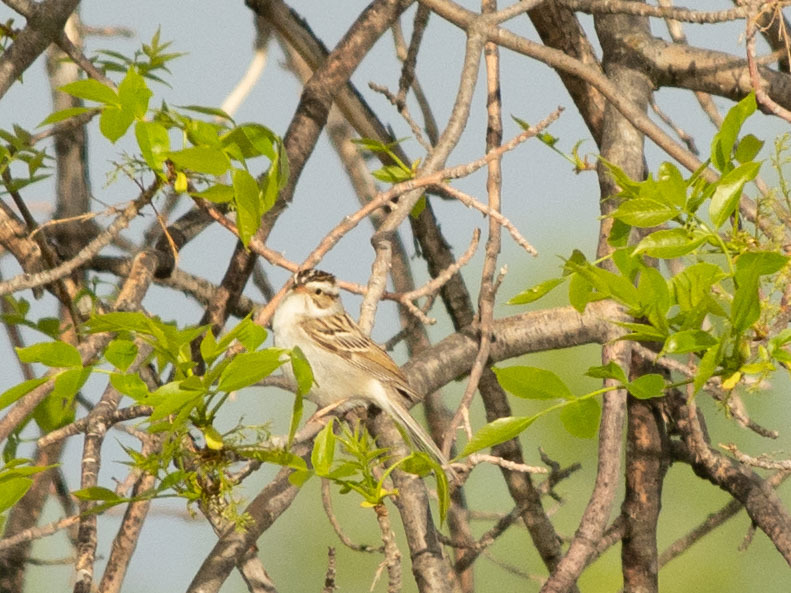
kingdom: Animalia
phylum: Chordata
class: Aves
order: Passeriformes
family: Passerellidae
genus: Spizella
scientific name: Spizella pallida
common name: Clay-colored sparrow
